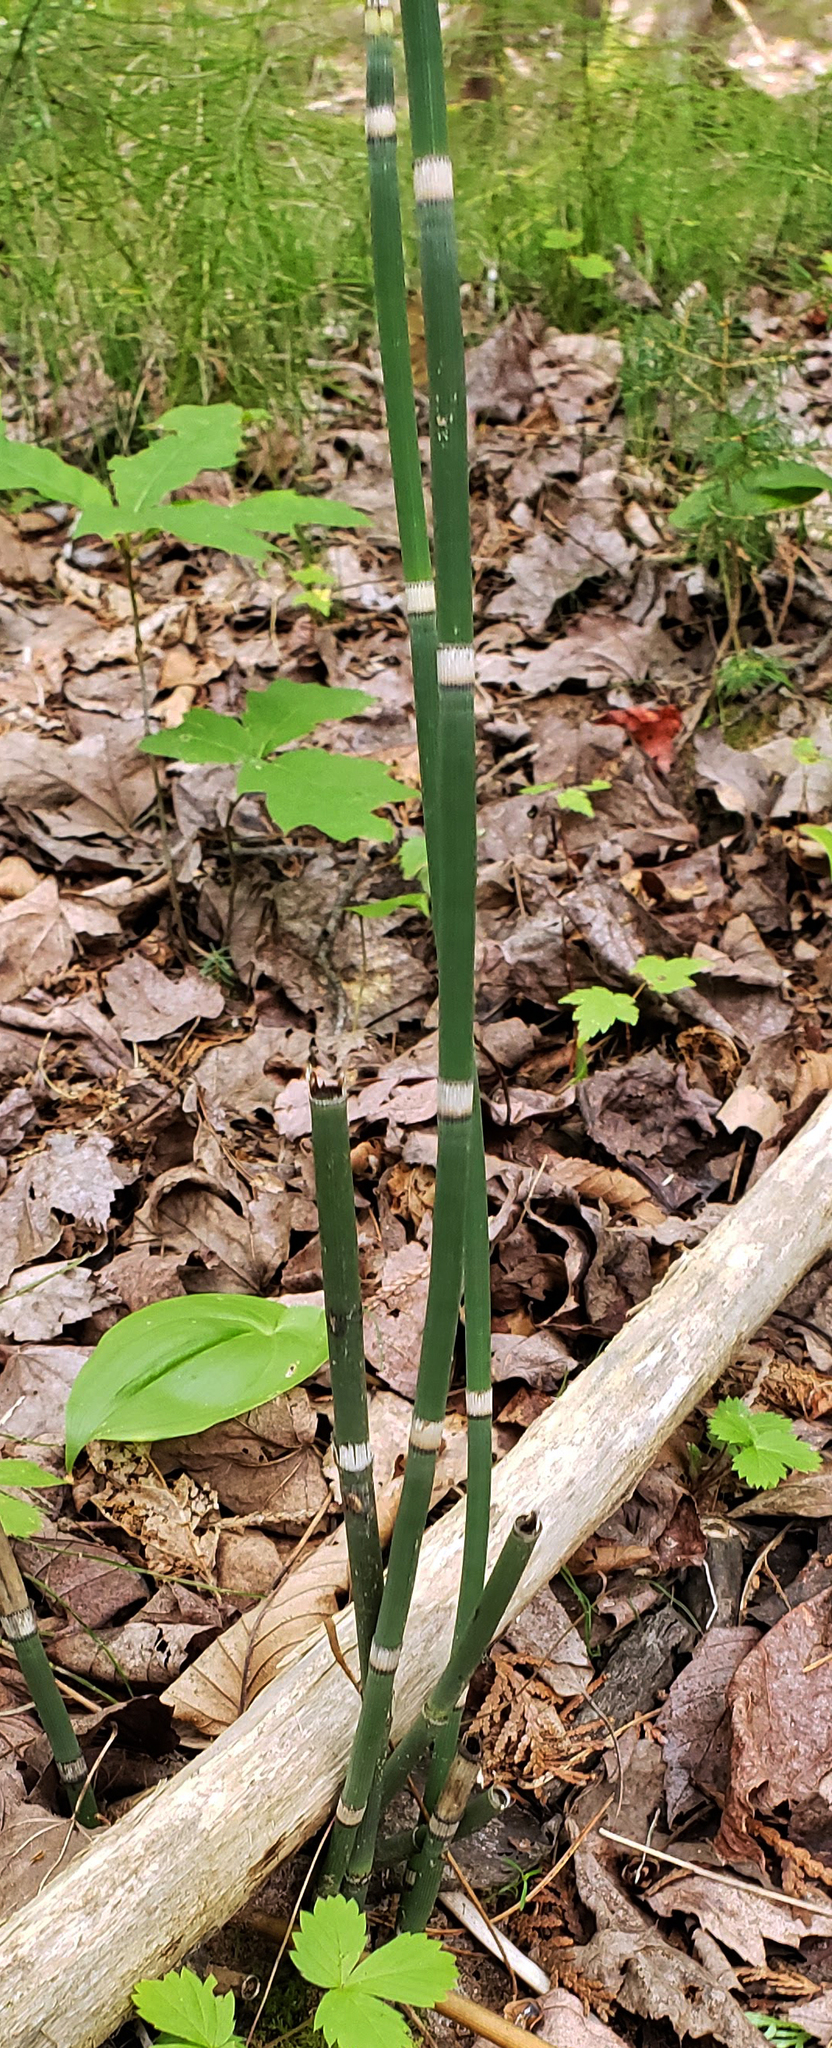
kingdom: Plantae
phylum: Tracheophyta
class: Polypodiopsida
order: Equisetales
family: Equisetaceae
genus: Equisetum
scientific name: Equisetum hyemale
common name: Rough horsetail
